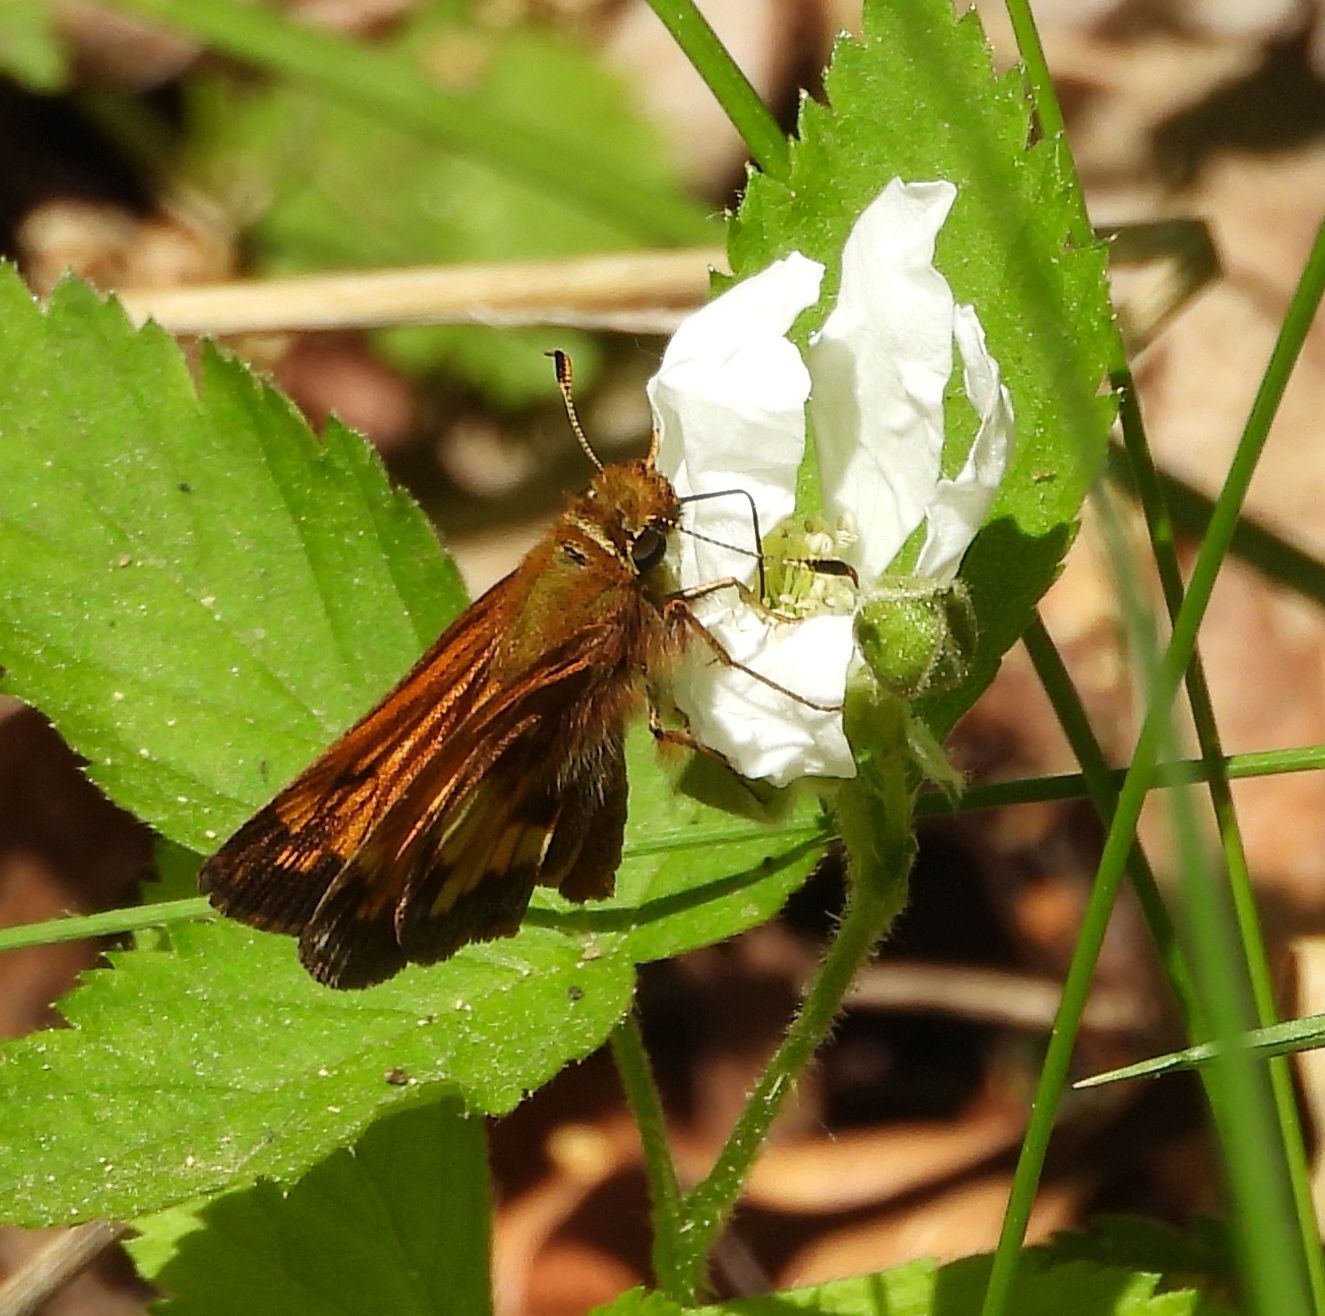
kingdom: Animalia
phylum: Arthropoda
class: Insecta
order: Lepidoptera
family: Hesperiidae
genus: Lon
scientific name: Lon hobomok
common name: Hobomok skipper
